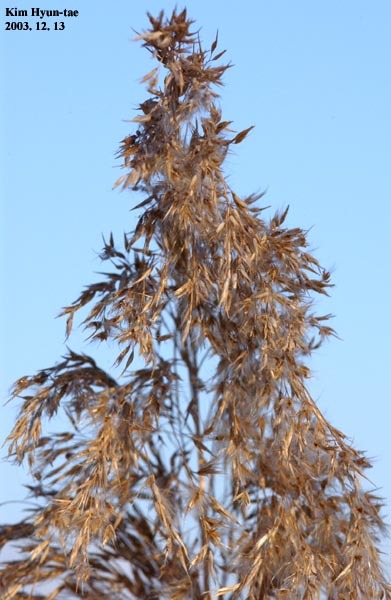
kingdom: Plantae
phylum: Tracheophyta
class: Liliopsida
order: Poales
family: Poaceae
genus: Phragmites
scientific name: Phragmites australis
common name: Common reed
